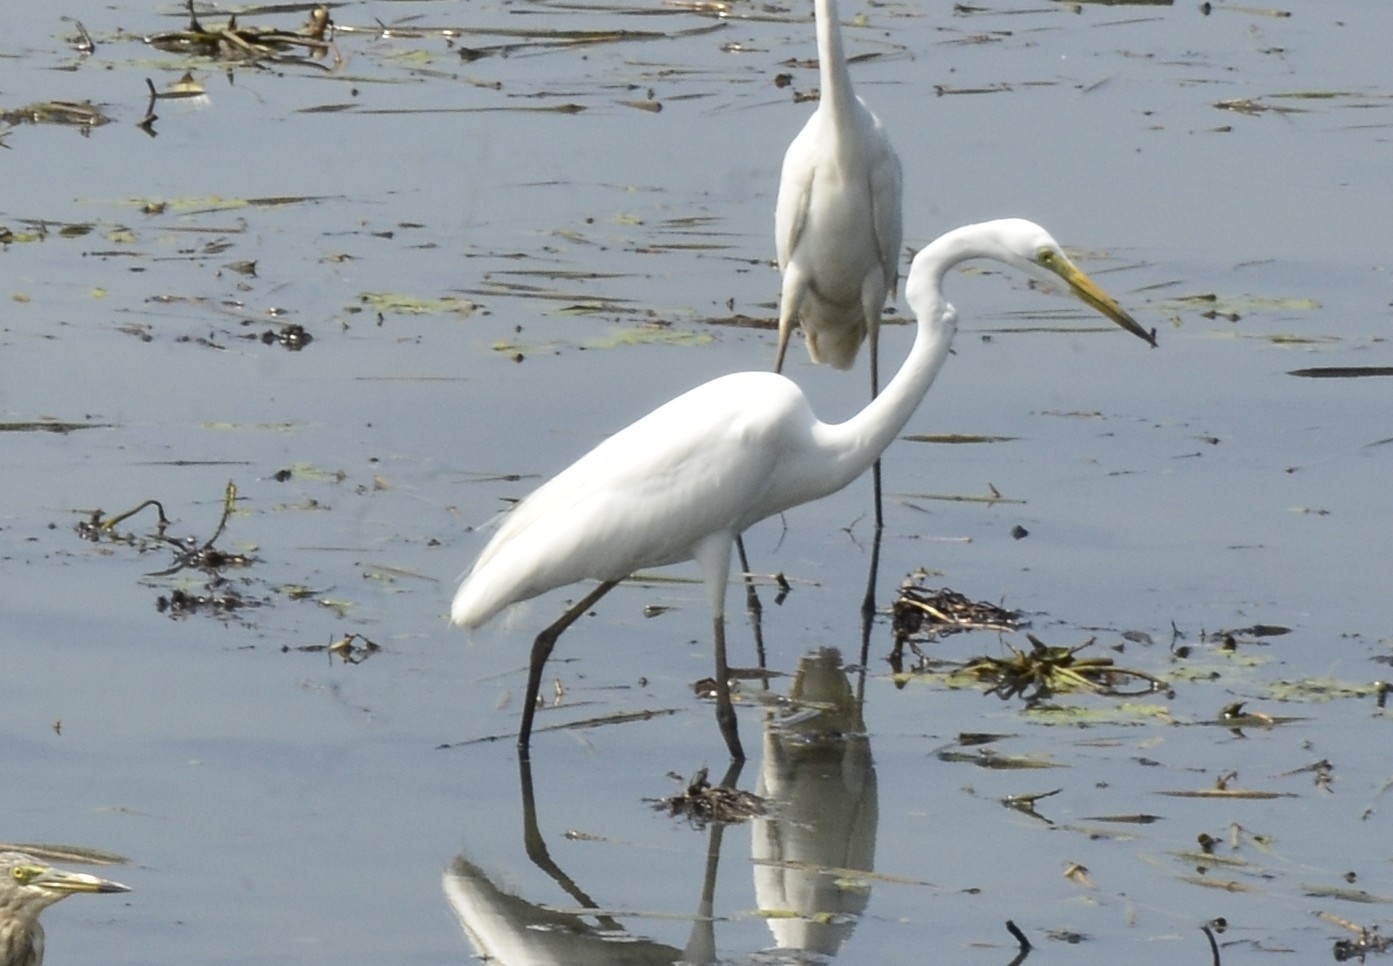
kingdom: Animalia
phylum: Chordata
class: Aves
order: Pelecaniformes
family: Ardeidae
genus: Ardea
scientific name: Ardea alba
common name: Great egret
